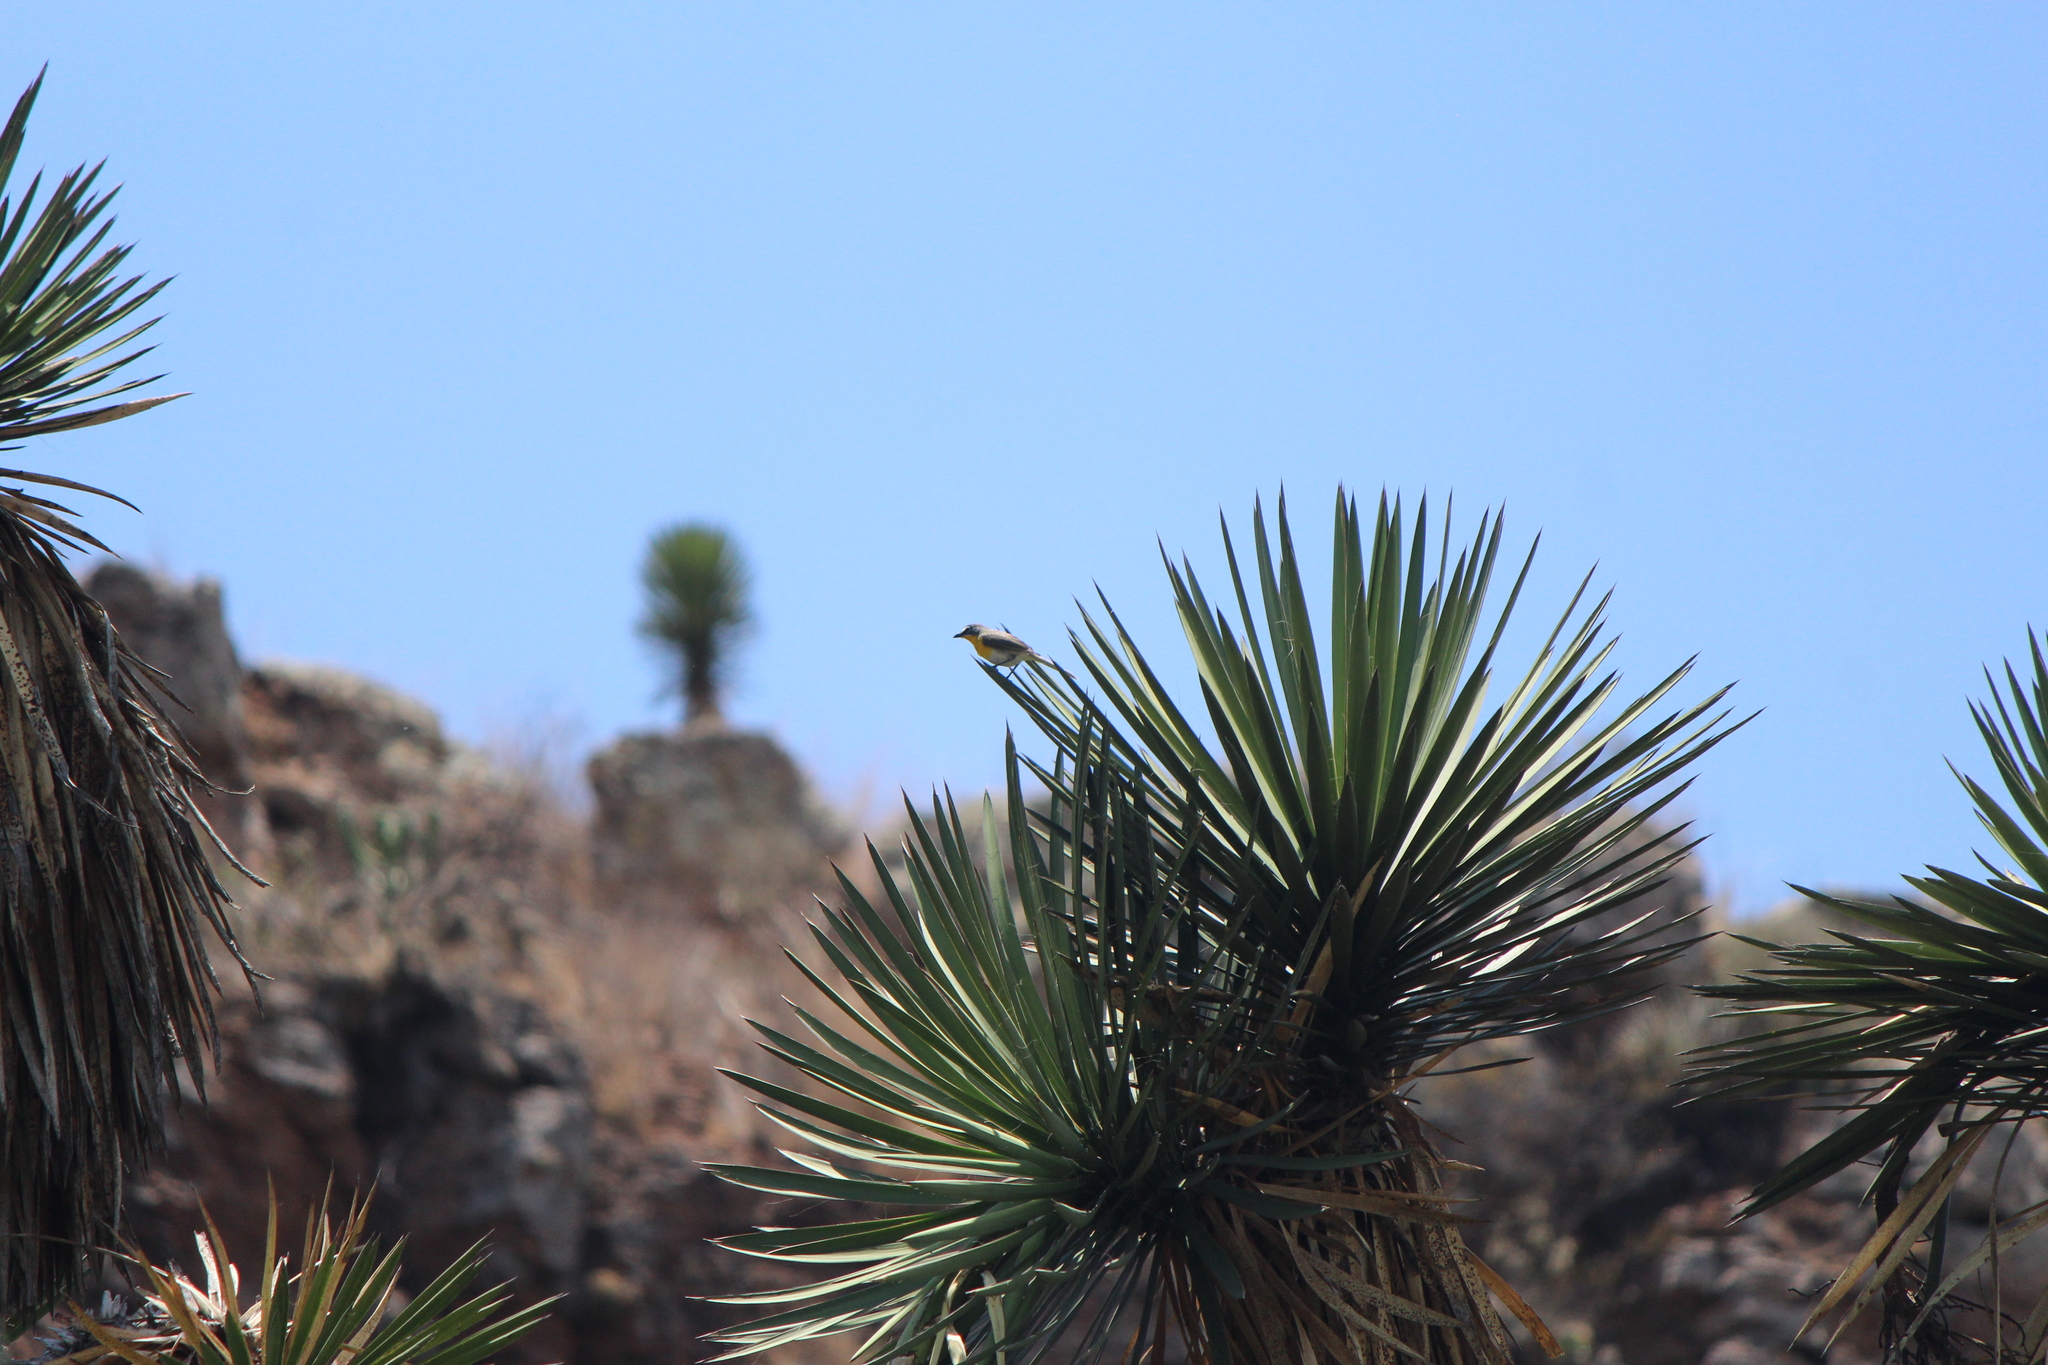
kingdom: Animalia
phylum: Chordata
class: Aves
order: Passeriformes
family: Parulidae
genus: Icteria
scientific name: Icteria virens
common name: Yellow-breasted chat
